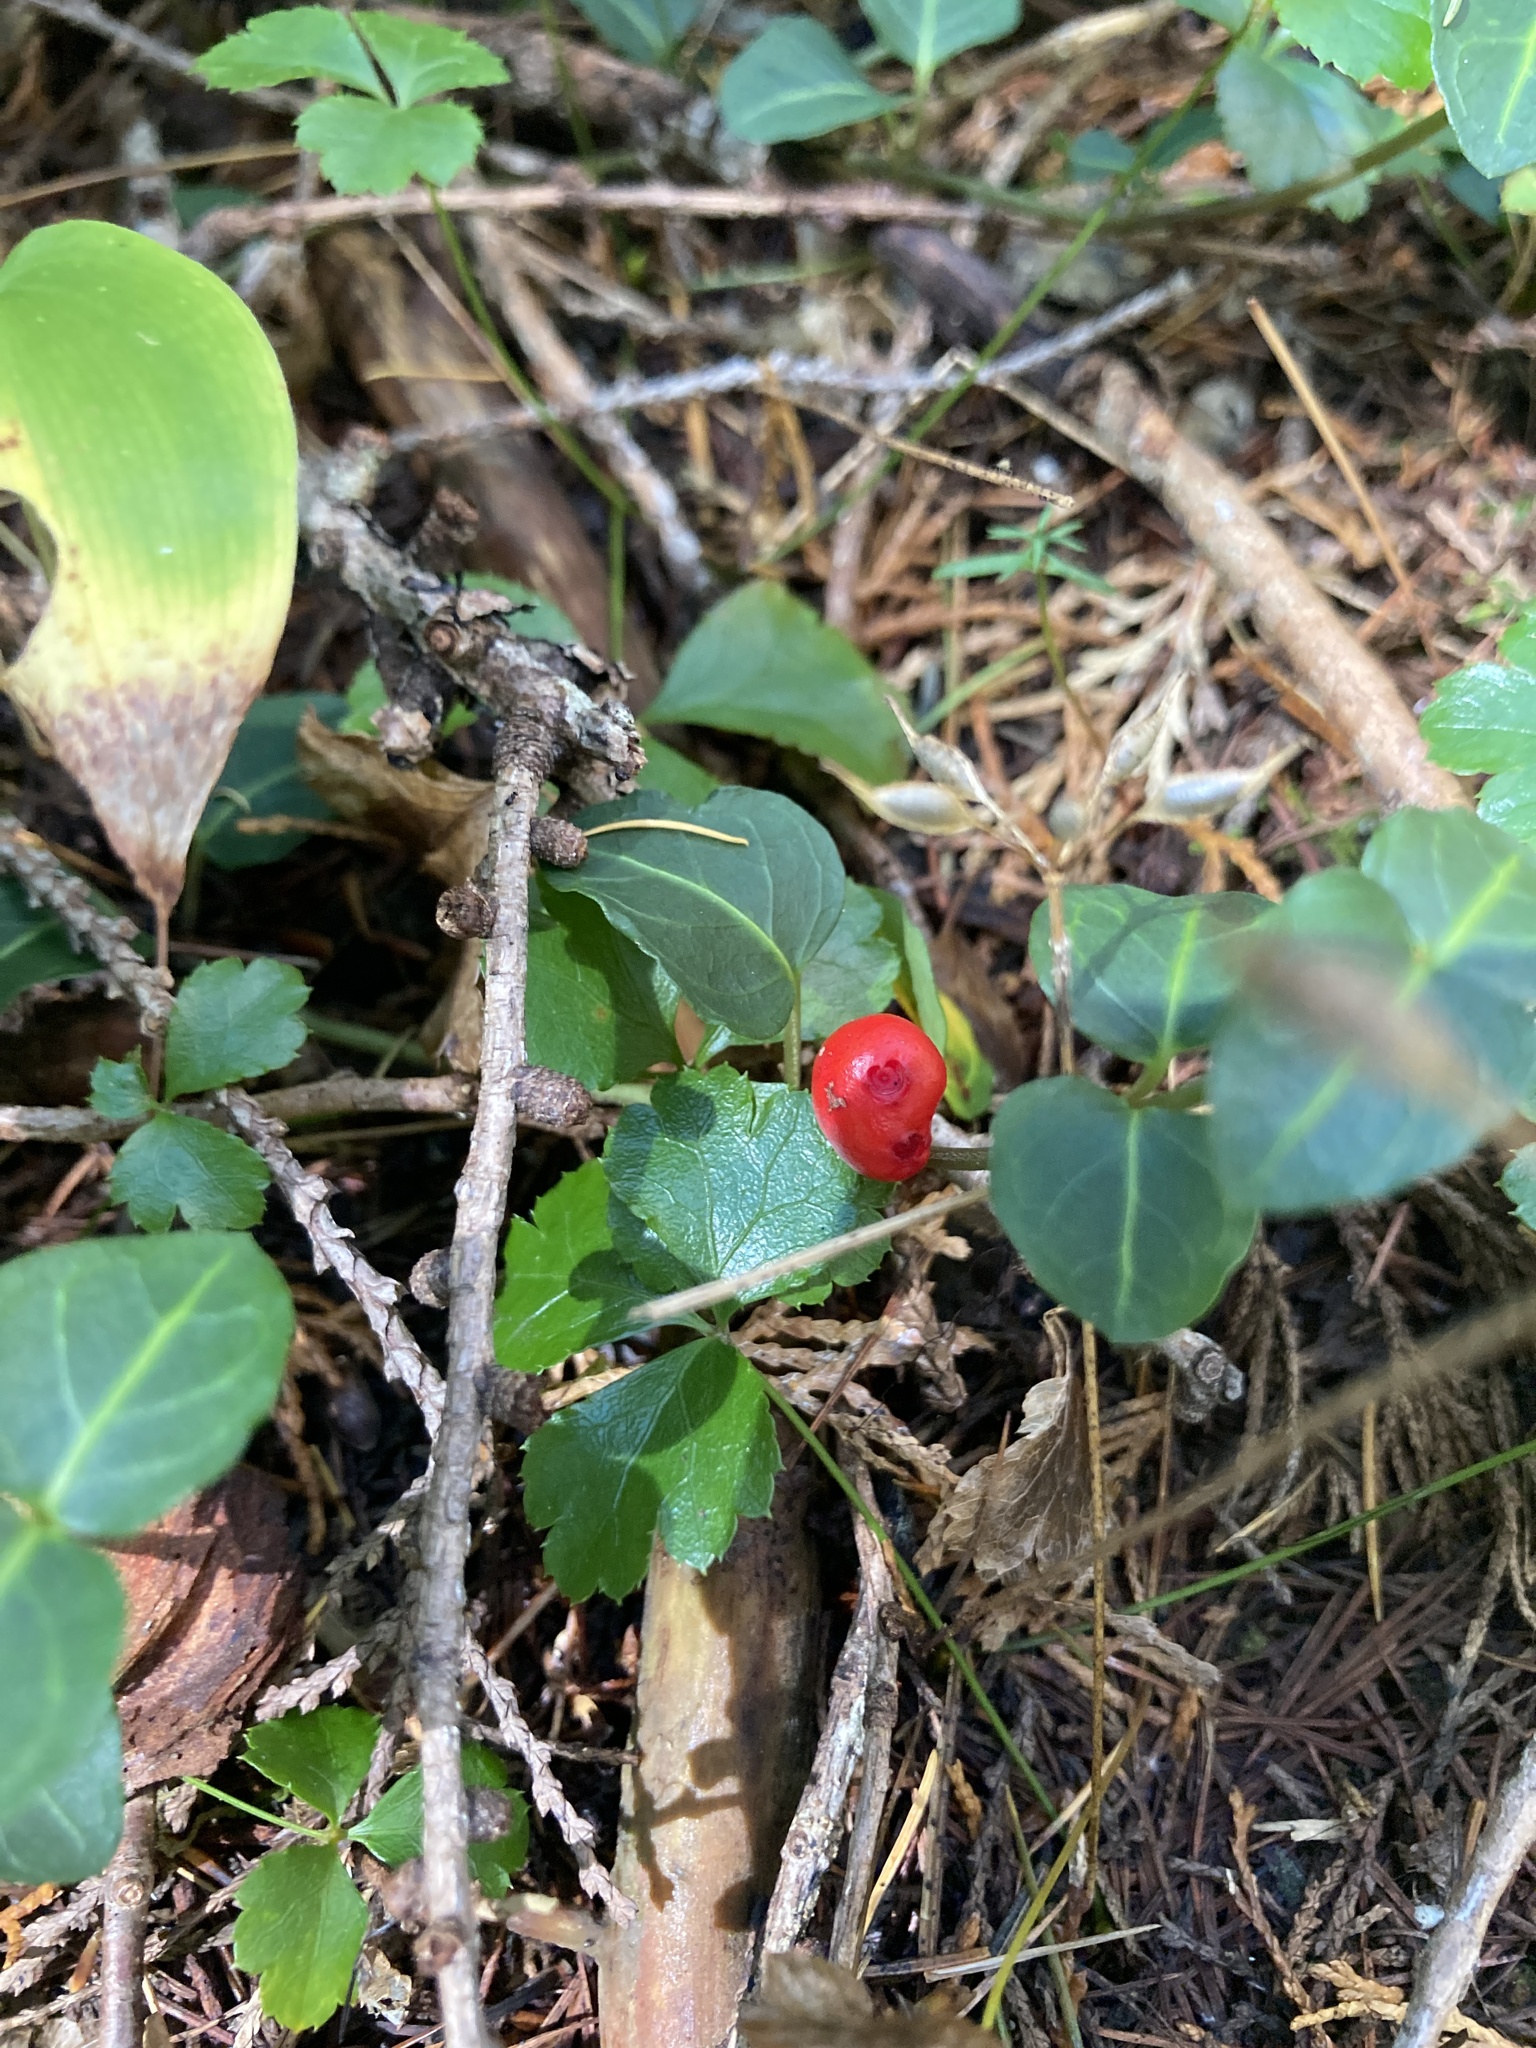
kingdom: Plantae
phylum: Tracheophyta
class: Magnoliopsida
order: Gentianales
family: Rubiaceae
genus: Mitchella
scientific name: Mitchella repens
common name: Partridge-berry
